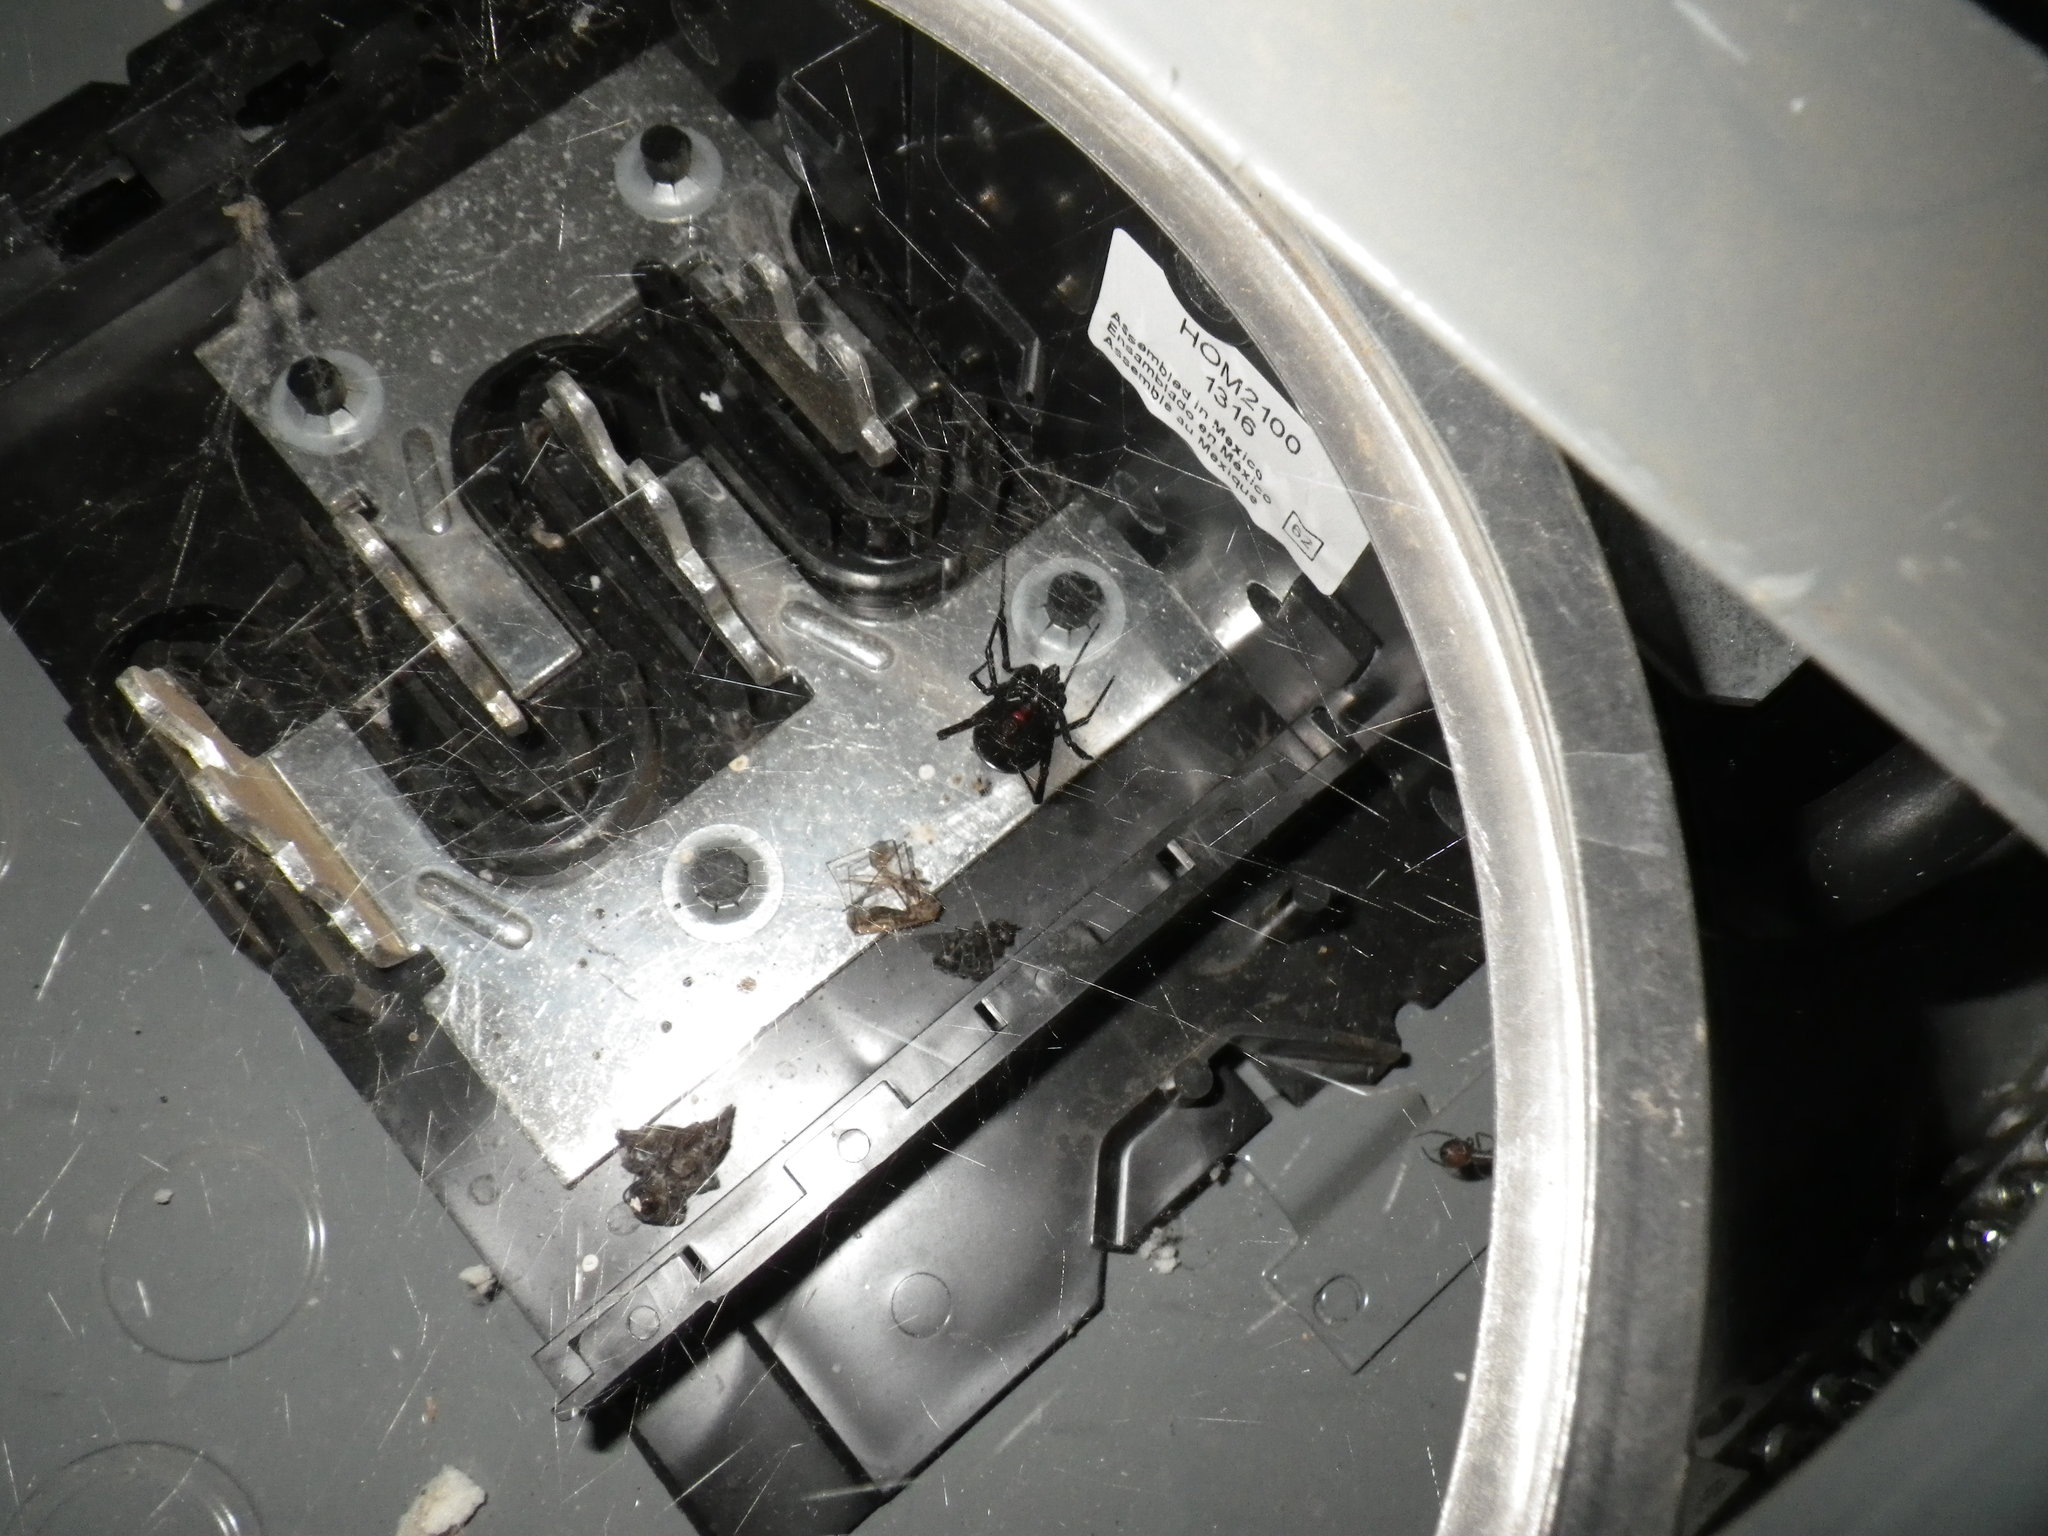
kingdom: Animalia
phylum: Arthropoda
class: Arachnida
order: Araneae
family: Theridiidae
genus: Latrodectus
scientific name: Latrodectus hesperus
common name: Western black widow
